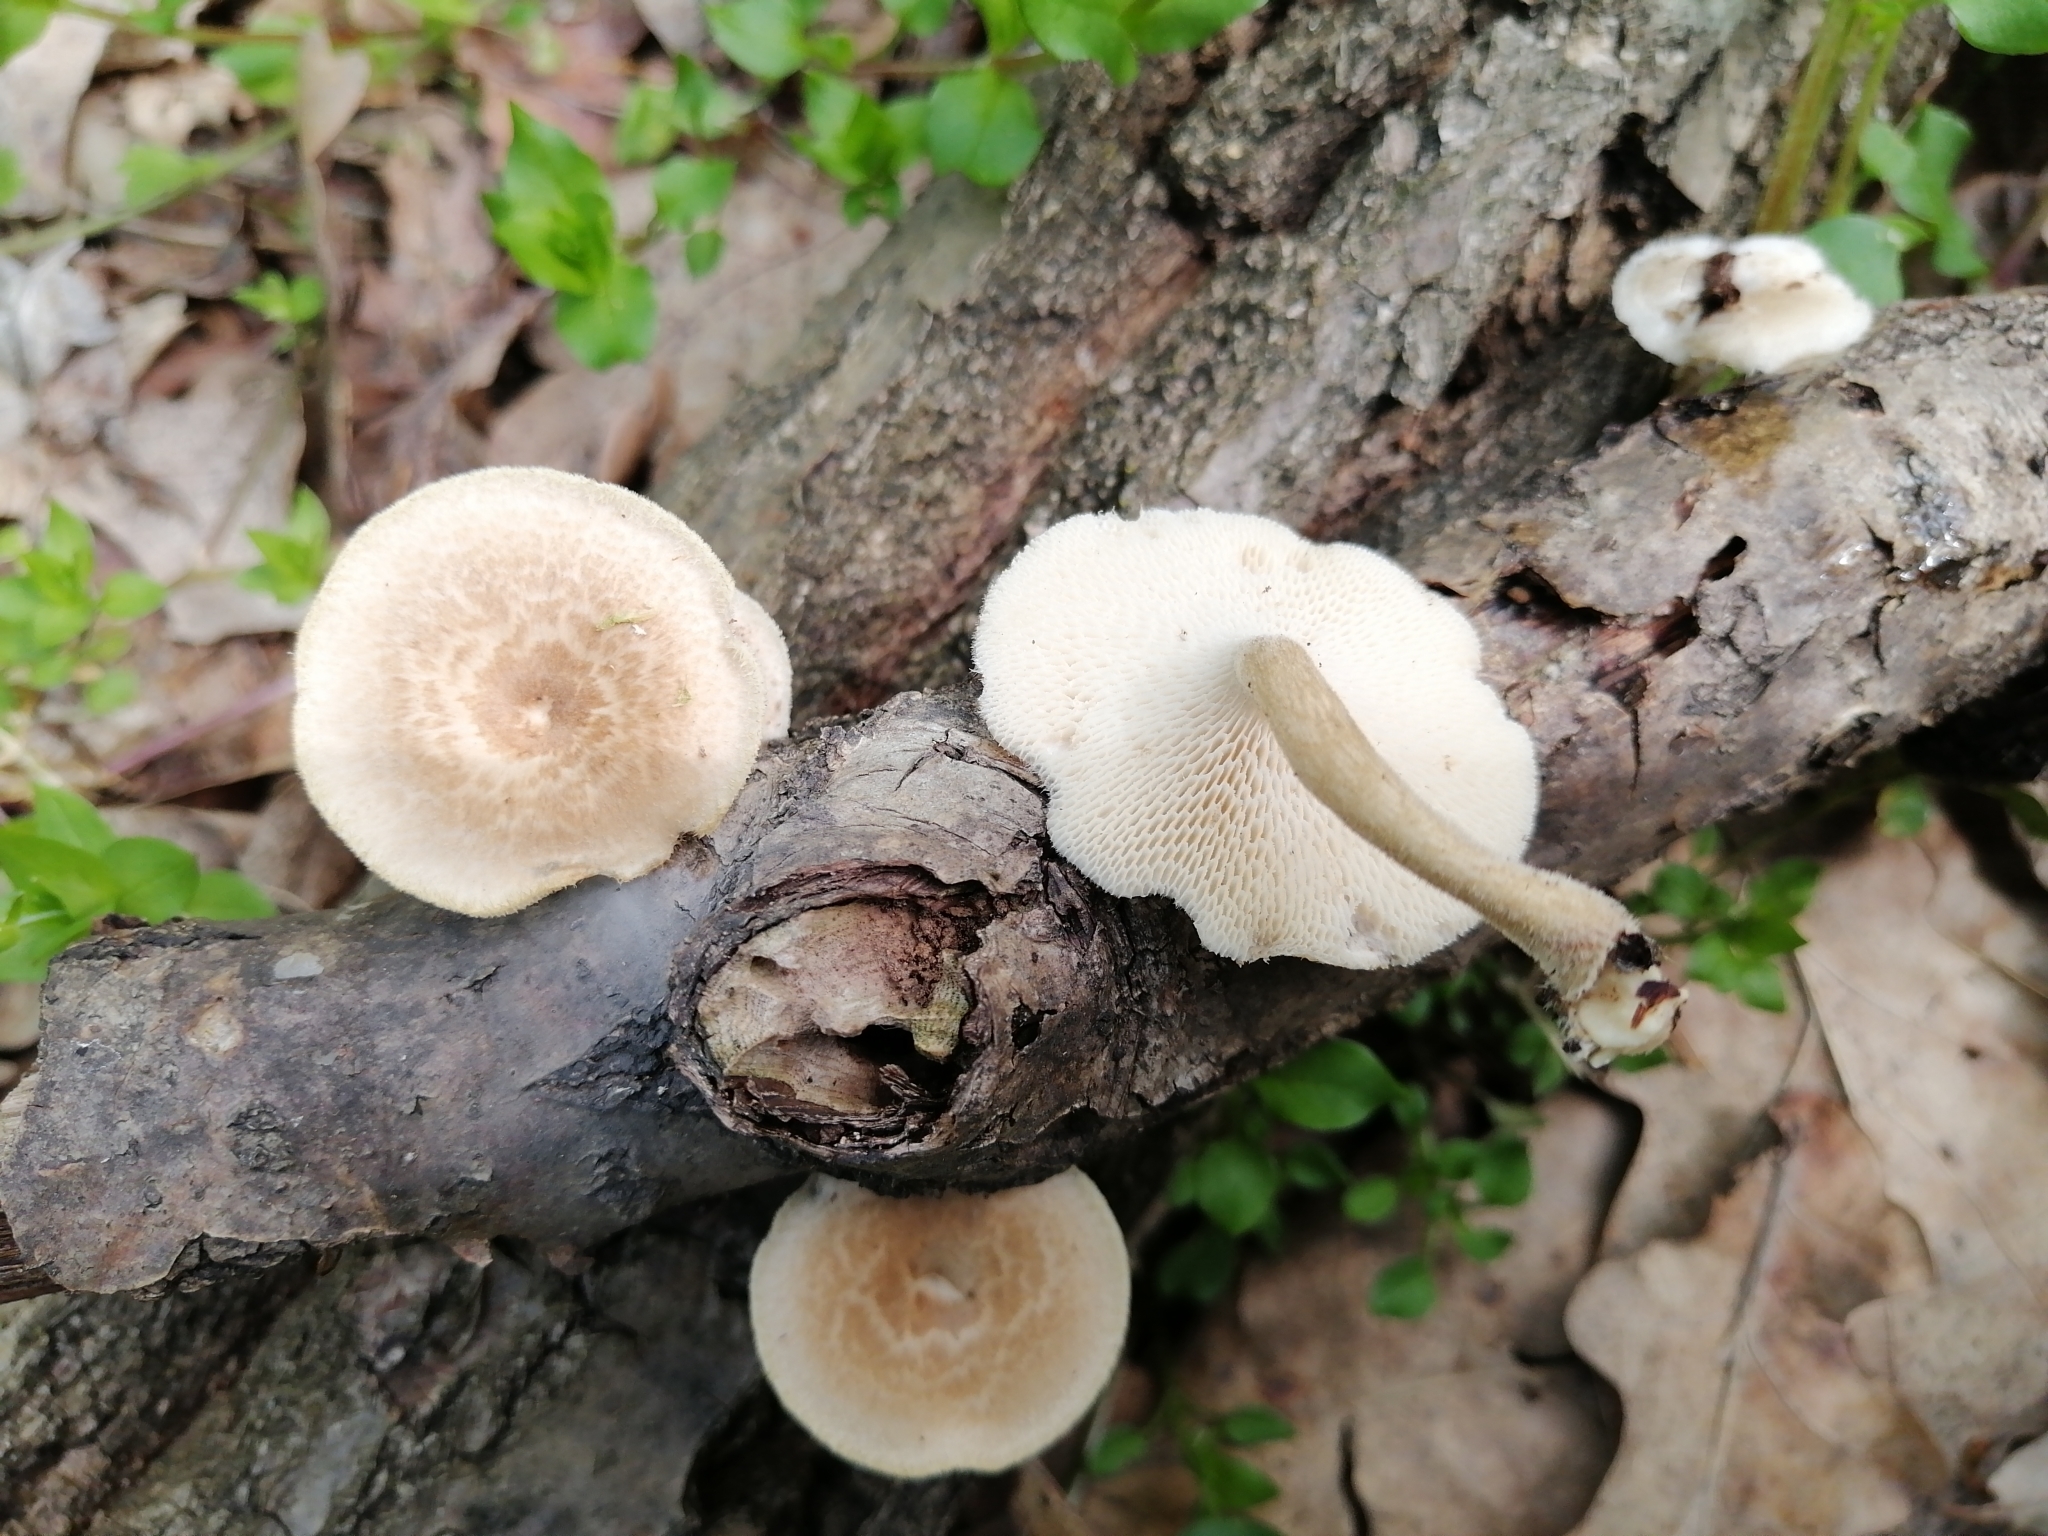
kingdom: Fungi
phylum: Basidiomycota
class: Agaricomycetes
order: Polyporales
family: Polyporaceae
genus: Lentinus
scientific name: Lentinus arcularius
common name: Spring polypore
